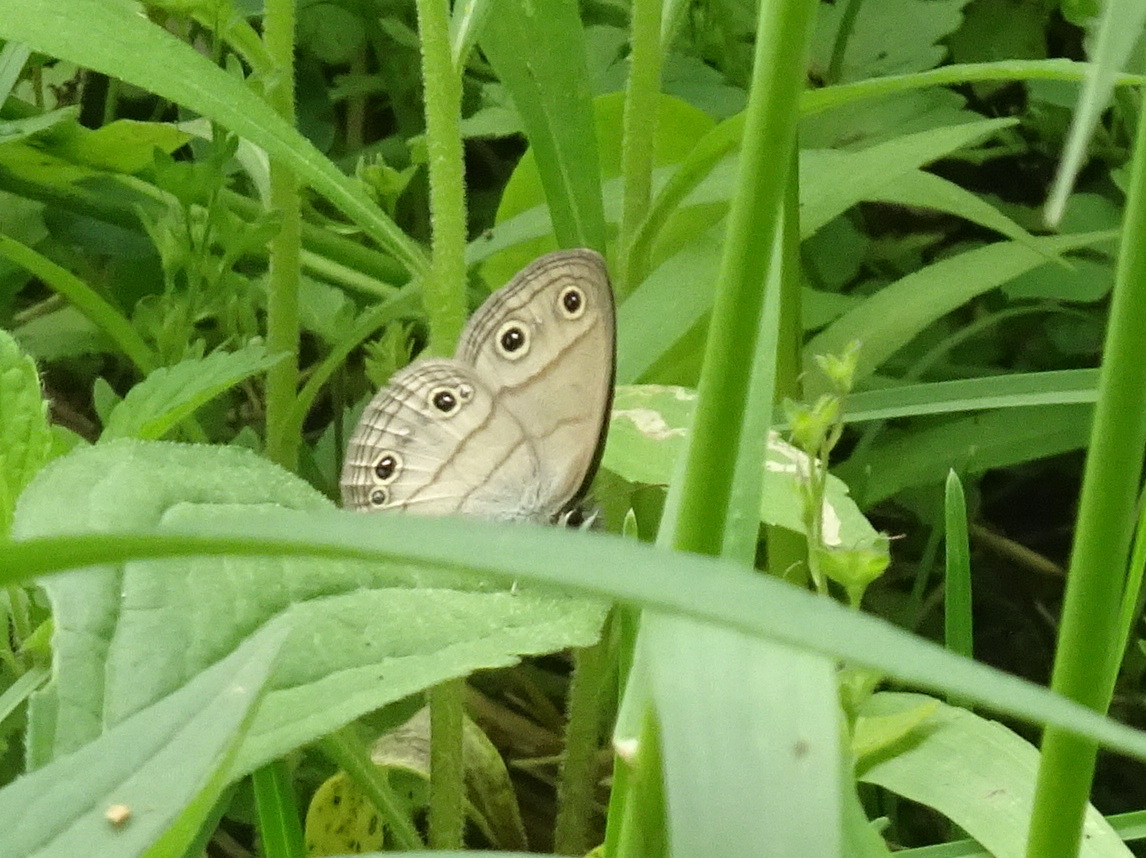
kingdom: Animalia
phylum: Arthropoda
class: Insecta
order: Lepidoptera
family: Nymphalidae
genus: Euptychia
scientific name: Euptychia cymela
